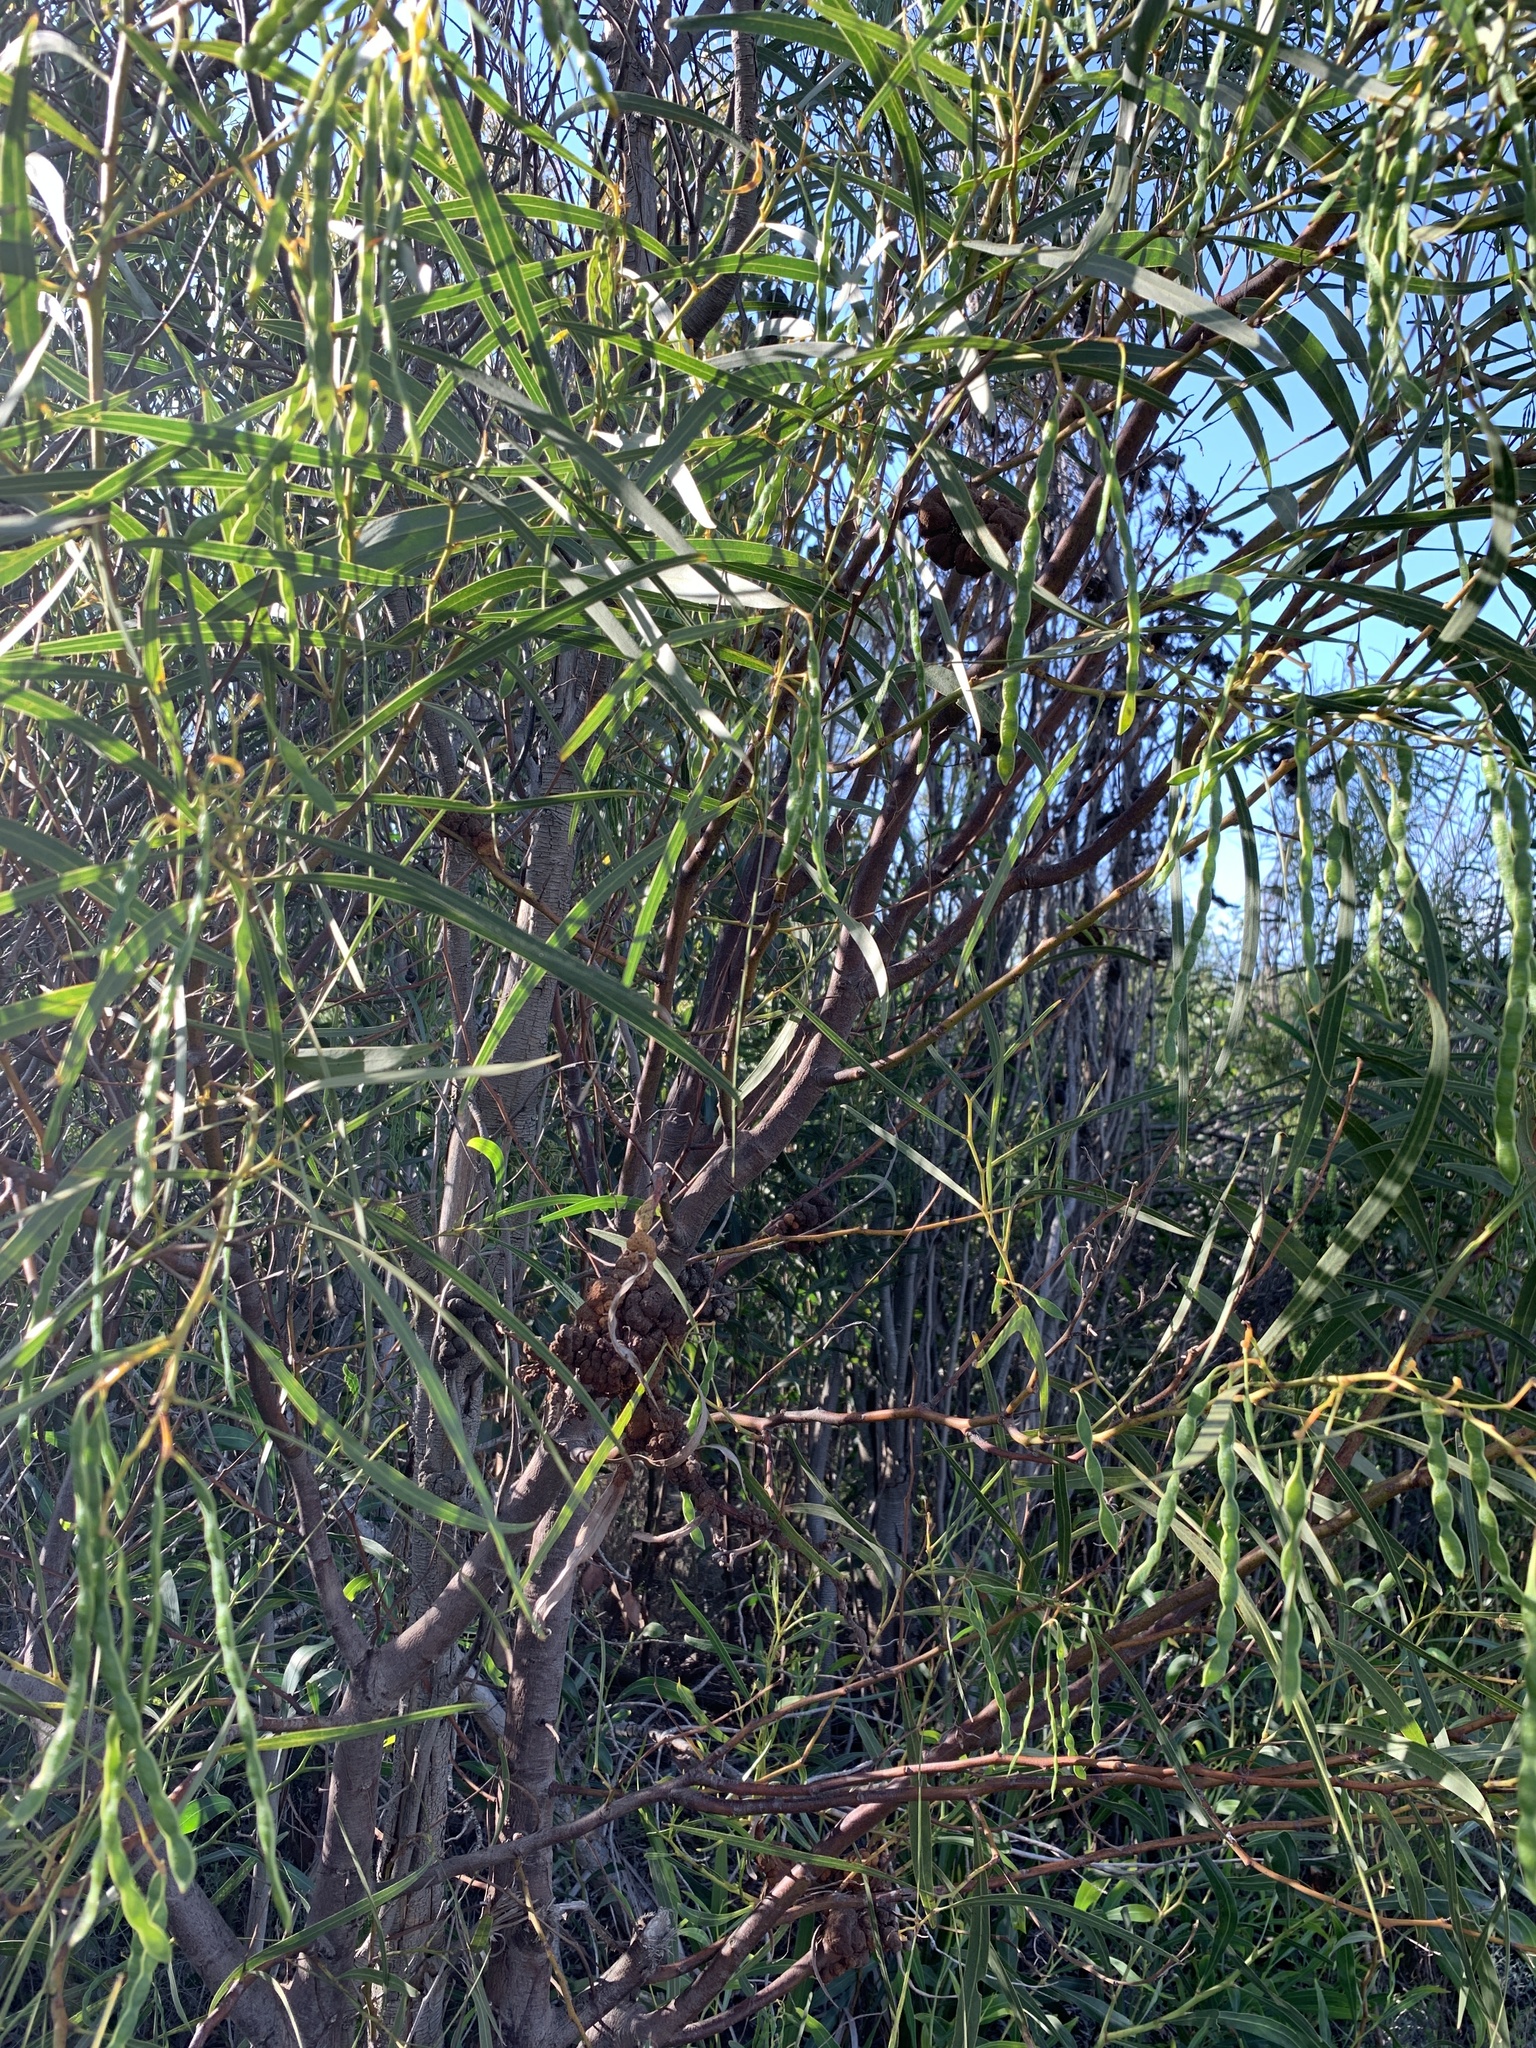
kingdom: Plantae
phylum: Tracheophyta
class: Magnoliopsida
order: Fabales
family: Fabaceae
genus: Acacia
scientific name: Acacia saligna
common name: Orange wattle
